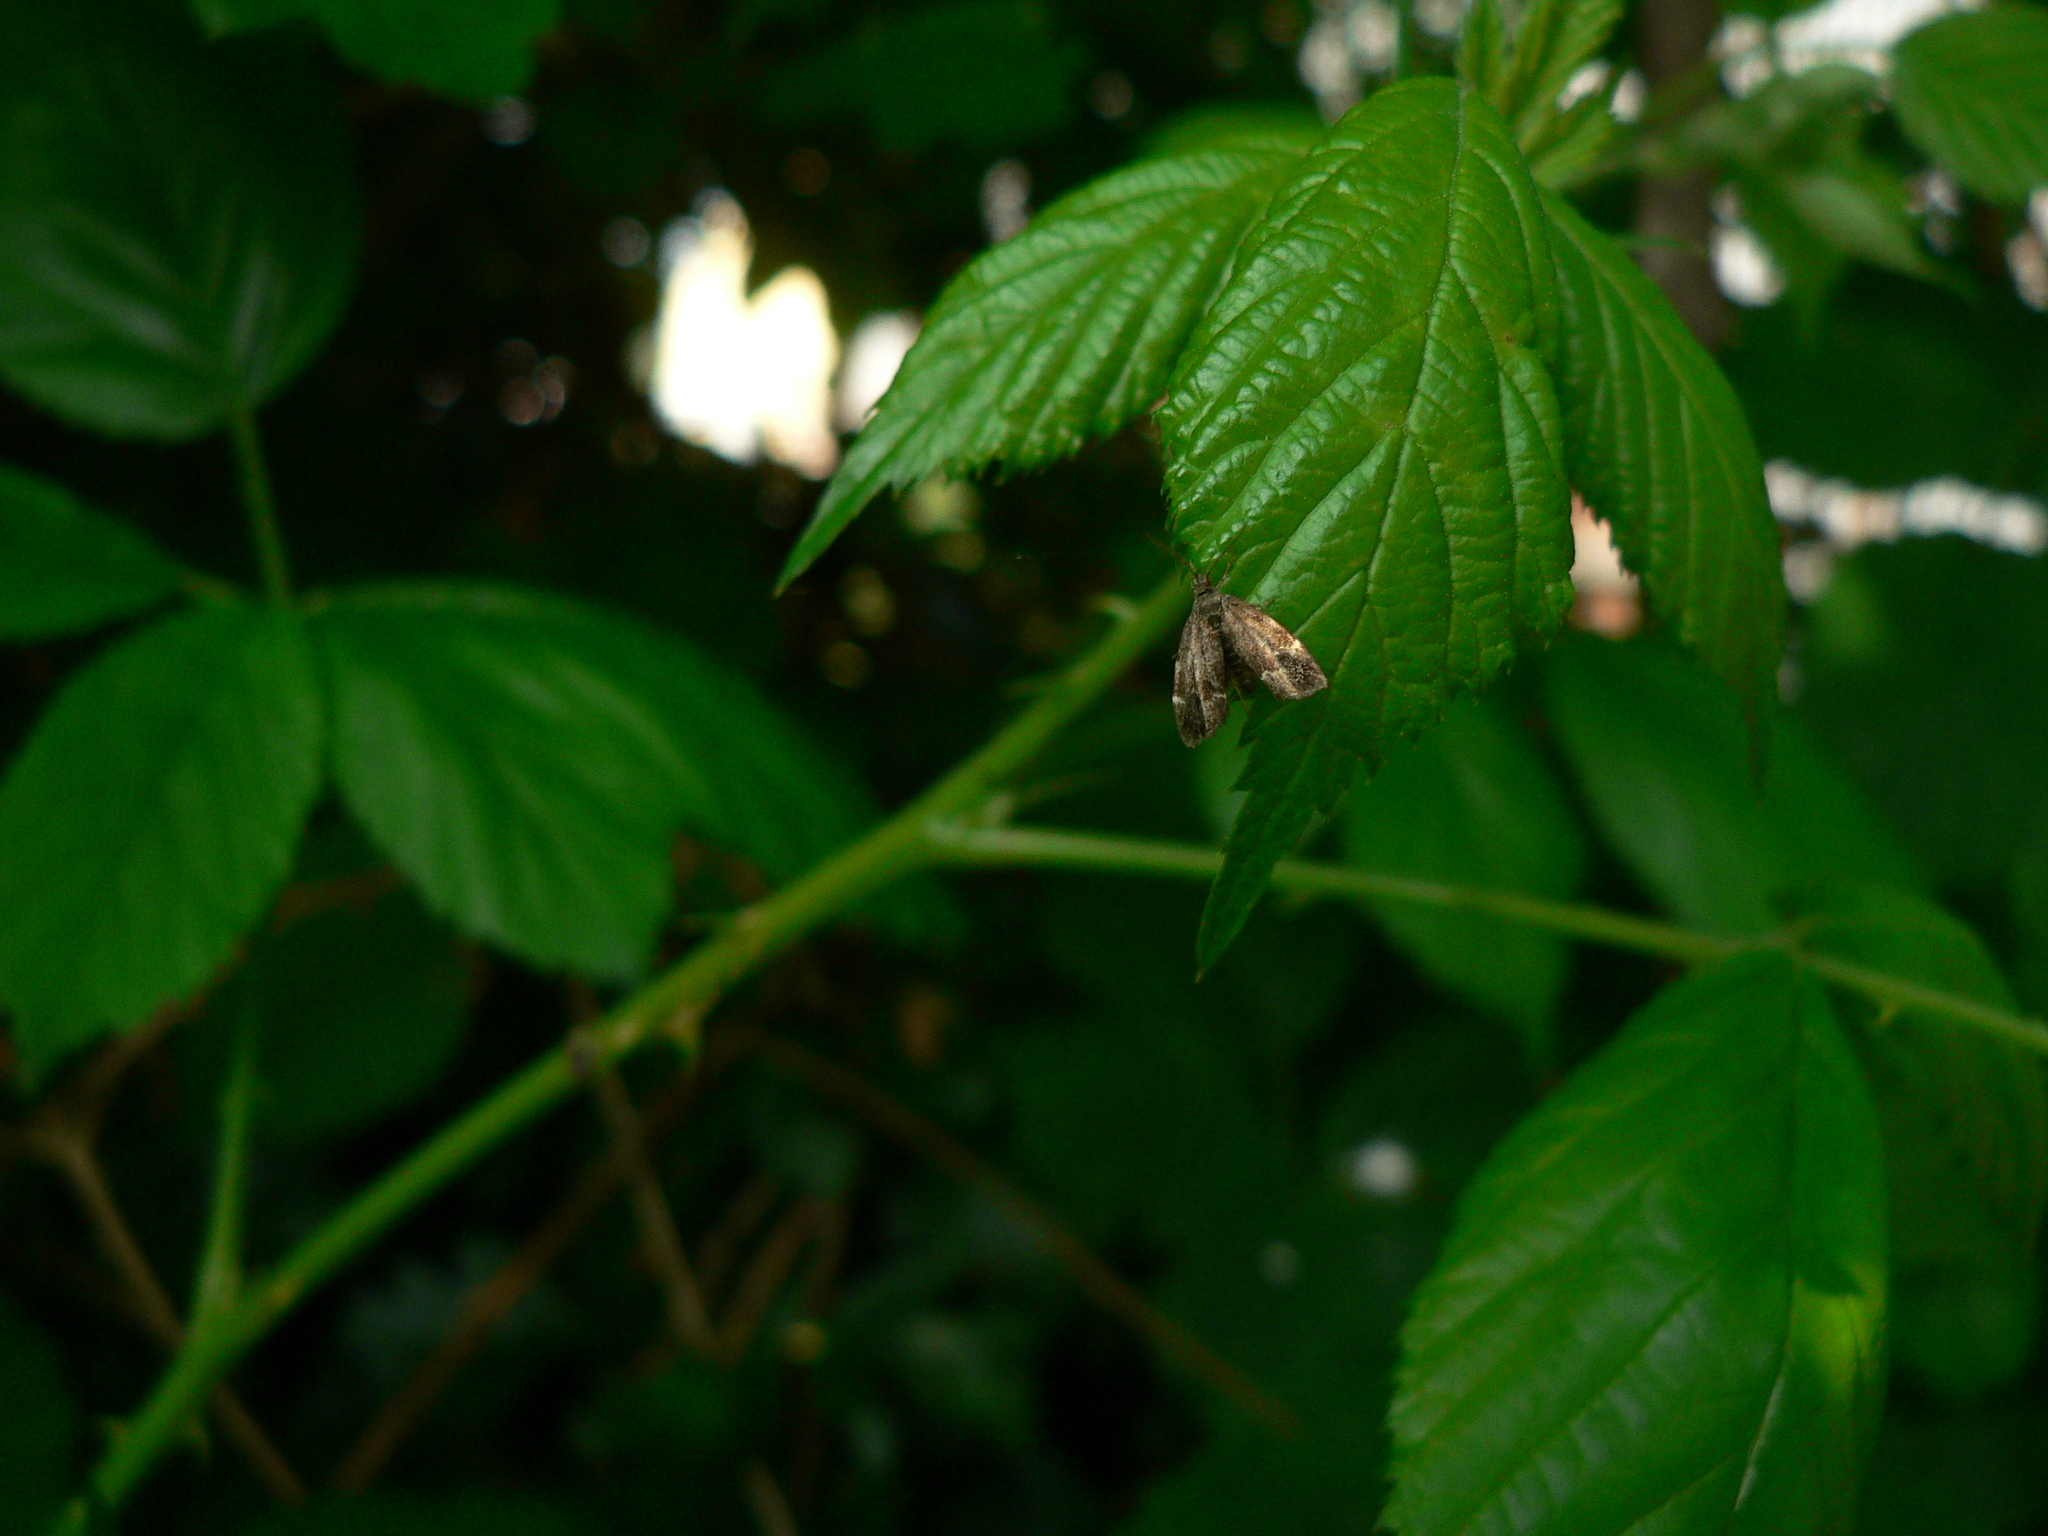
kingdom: Animalia
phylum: Arthropoda
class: Insecta
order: Lepidoptera
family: Choreutidae
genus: Anthophila
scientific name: Anthophila fabriciana
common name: Nettle-tap
